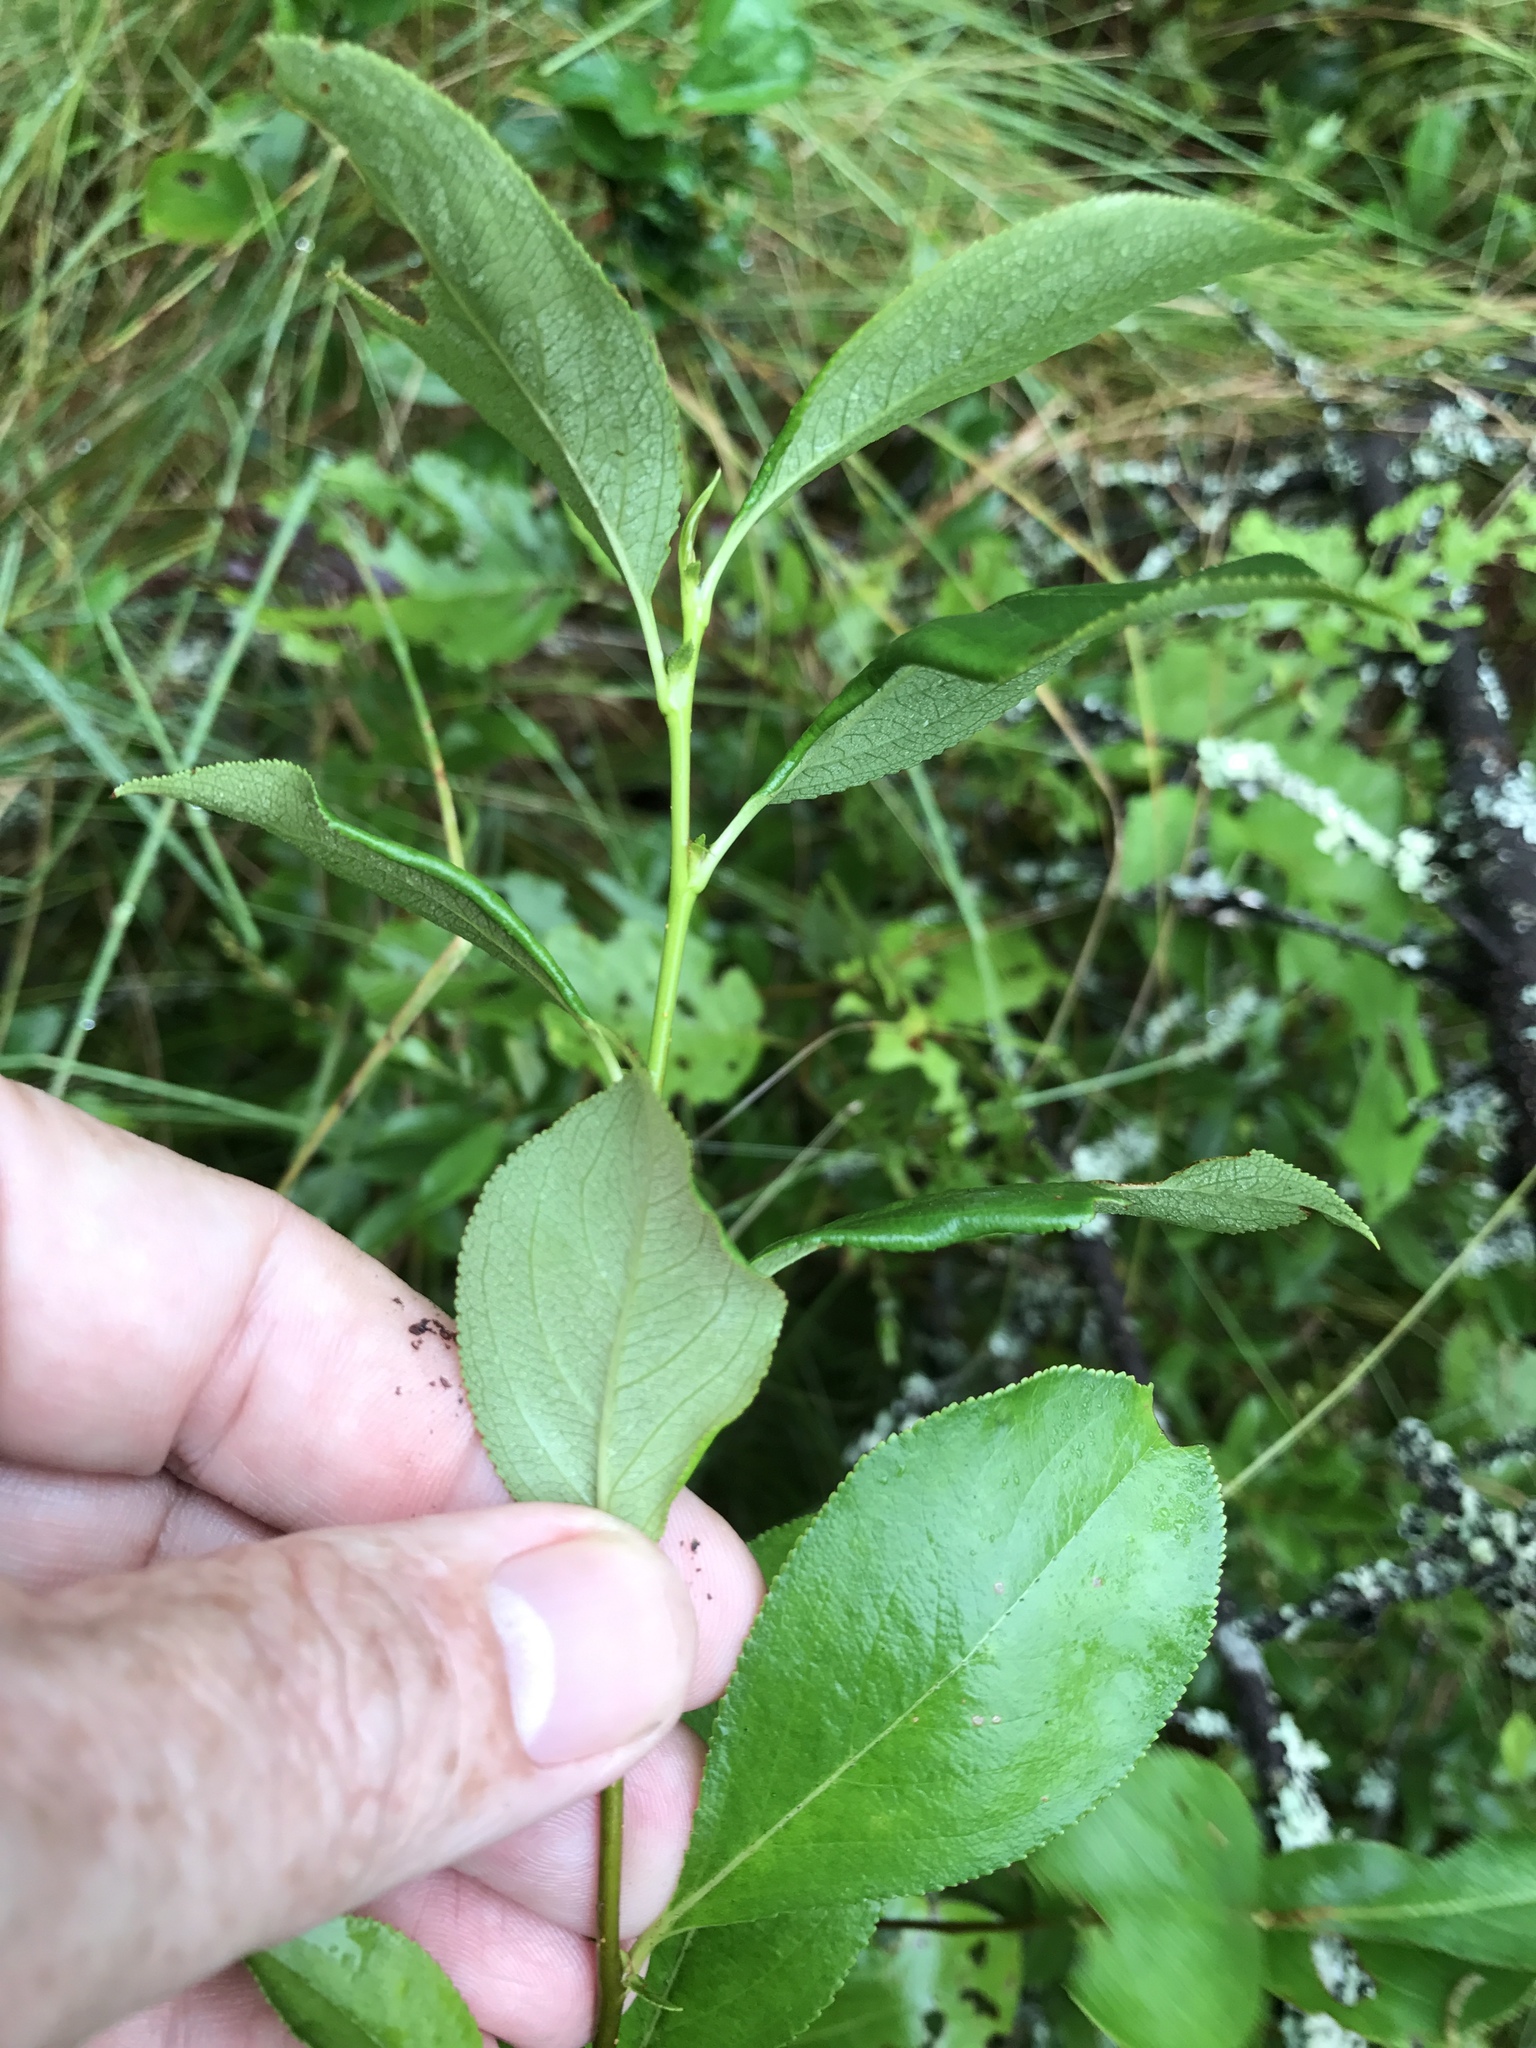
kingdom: Plantae
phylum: Tracheophyta
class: Magnoliopsida
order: Rosales
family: Rosaceae
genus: Aronia
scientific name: Aronia melanocarpa
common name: Black chokeberry
